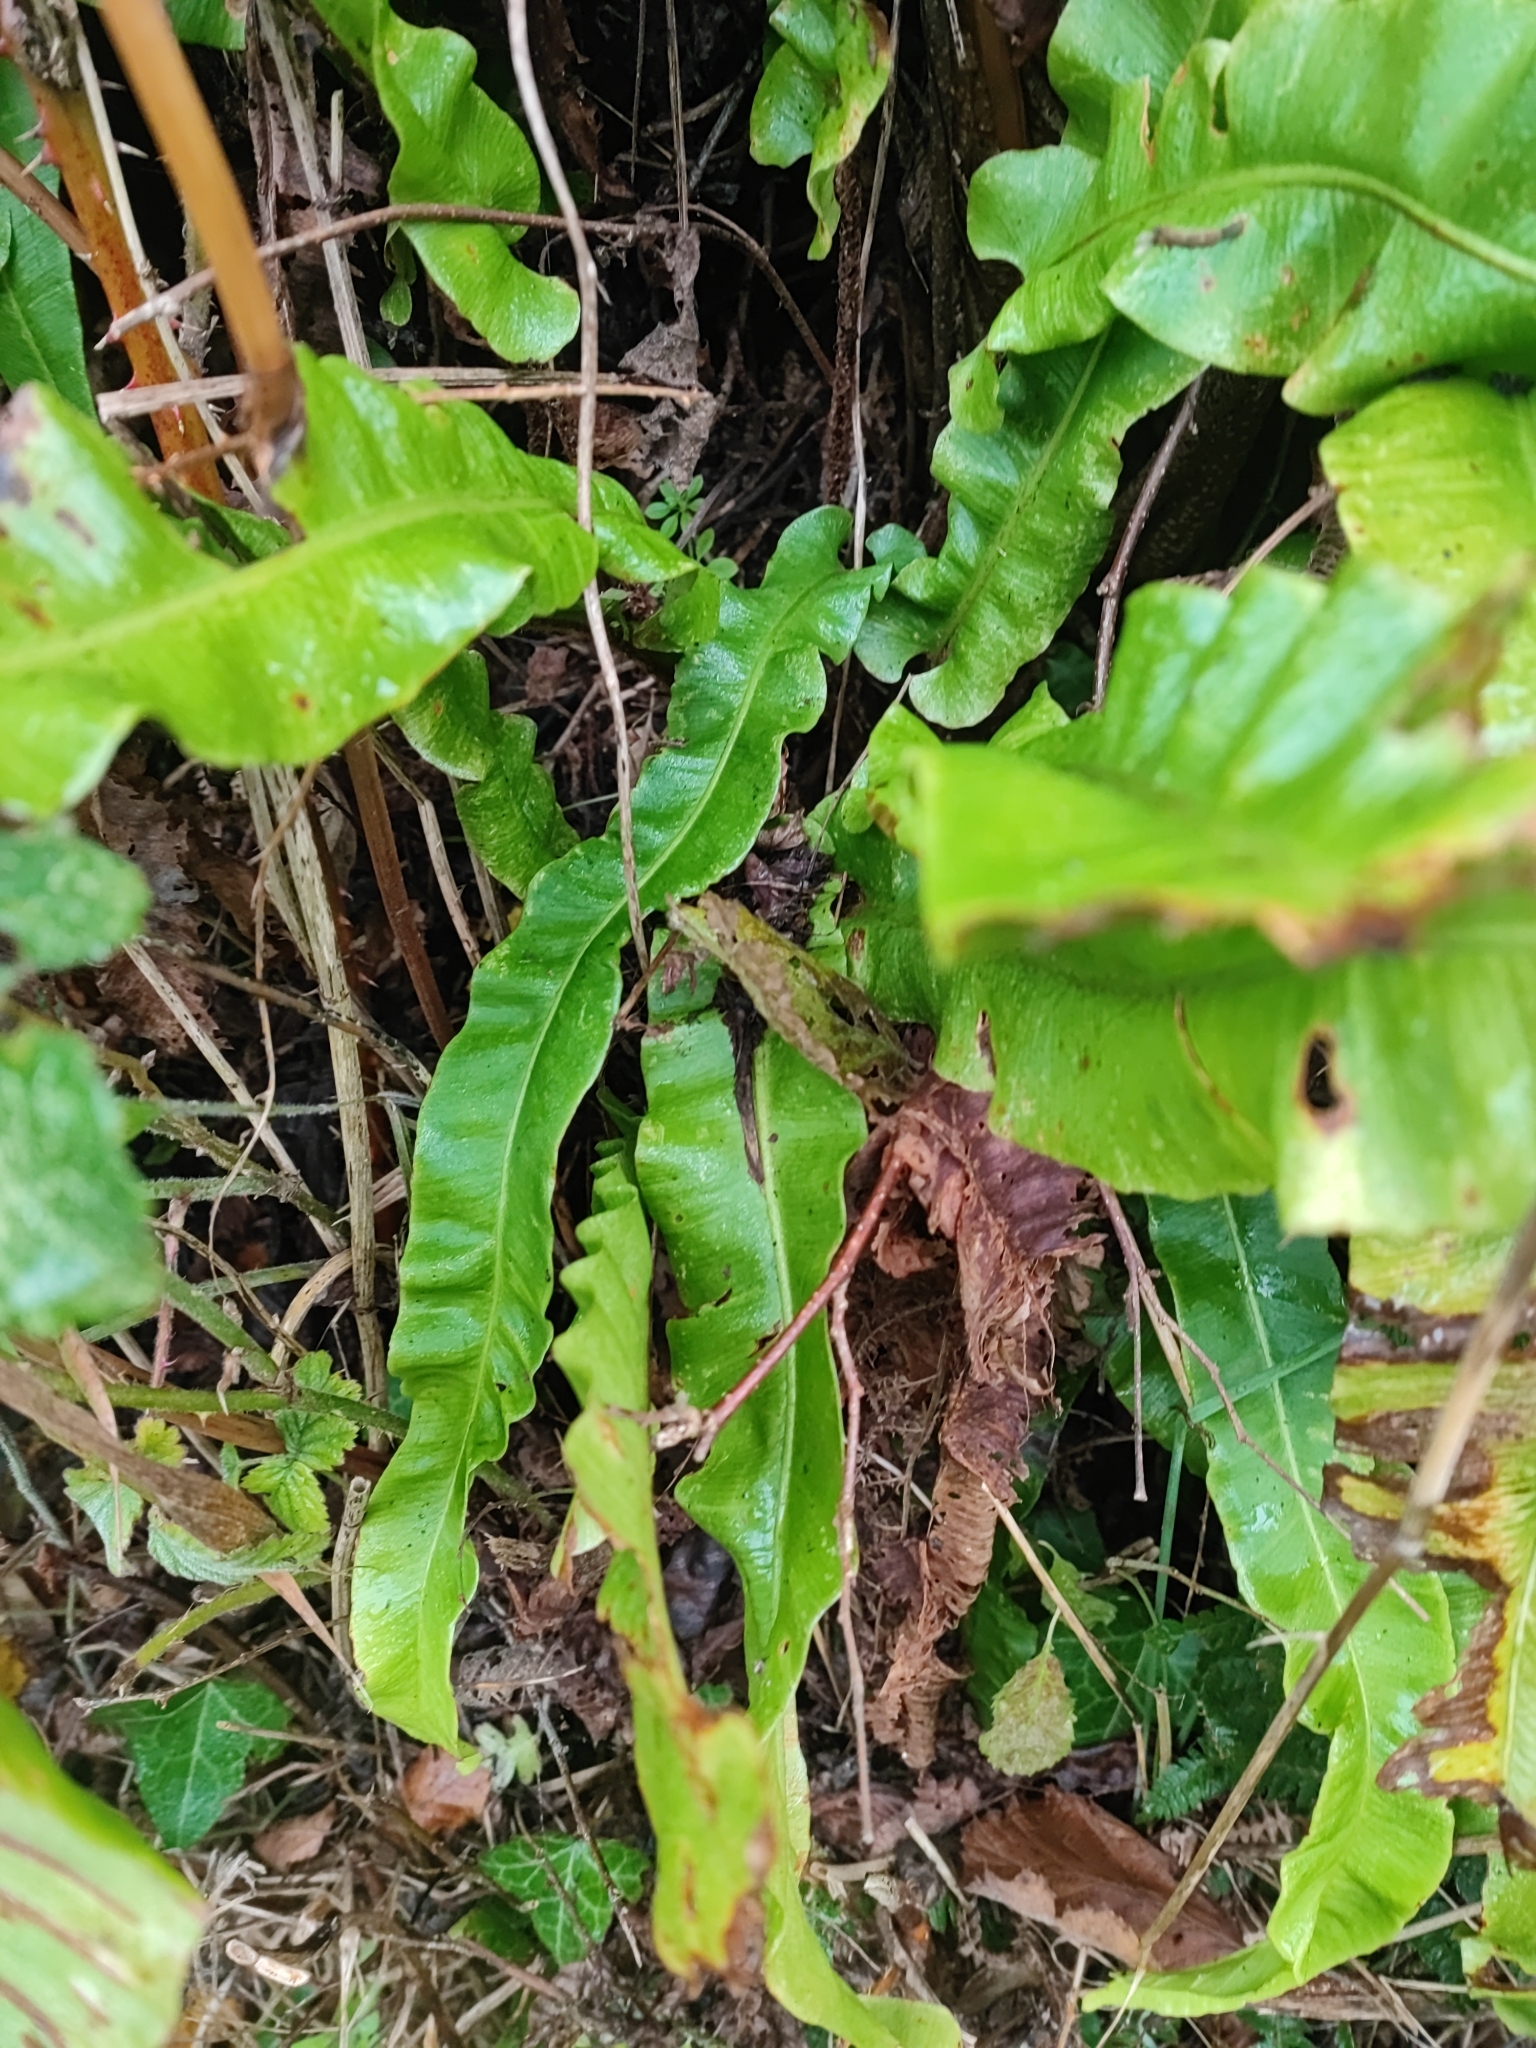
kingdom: Plantae
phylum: Tracheophyta
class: Polypodiopsida
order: Polypodiales
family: Aspleniaceae
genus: Asplenium
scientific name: Asplenium scolopendrium
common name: Hart's-tongue fern
